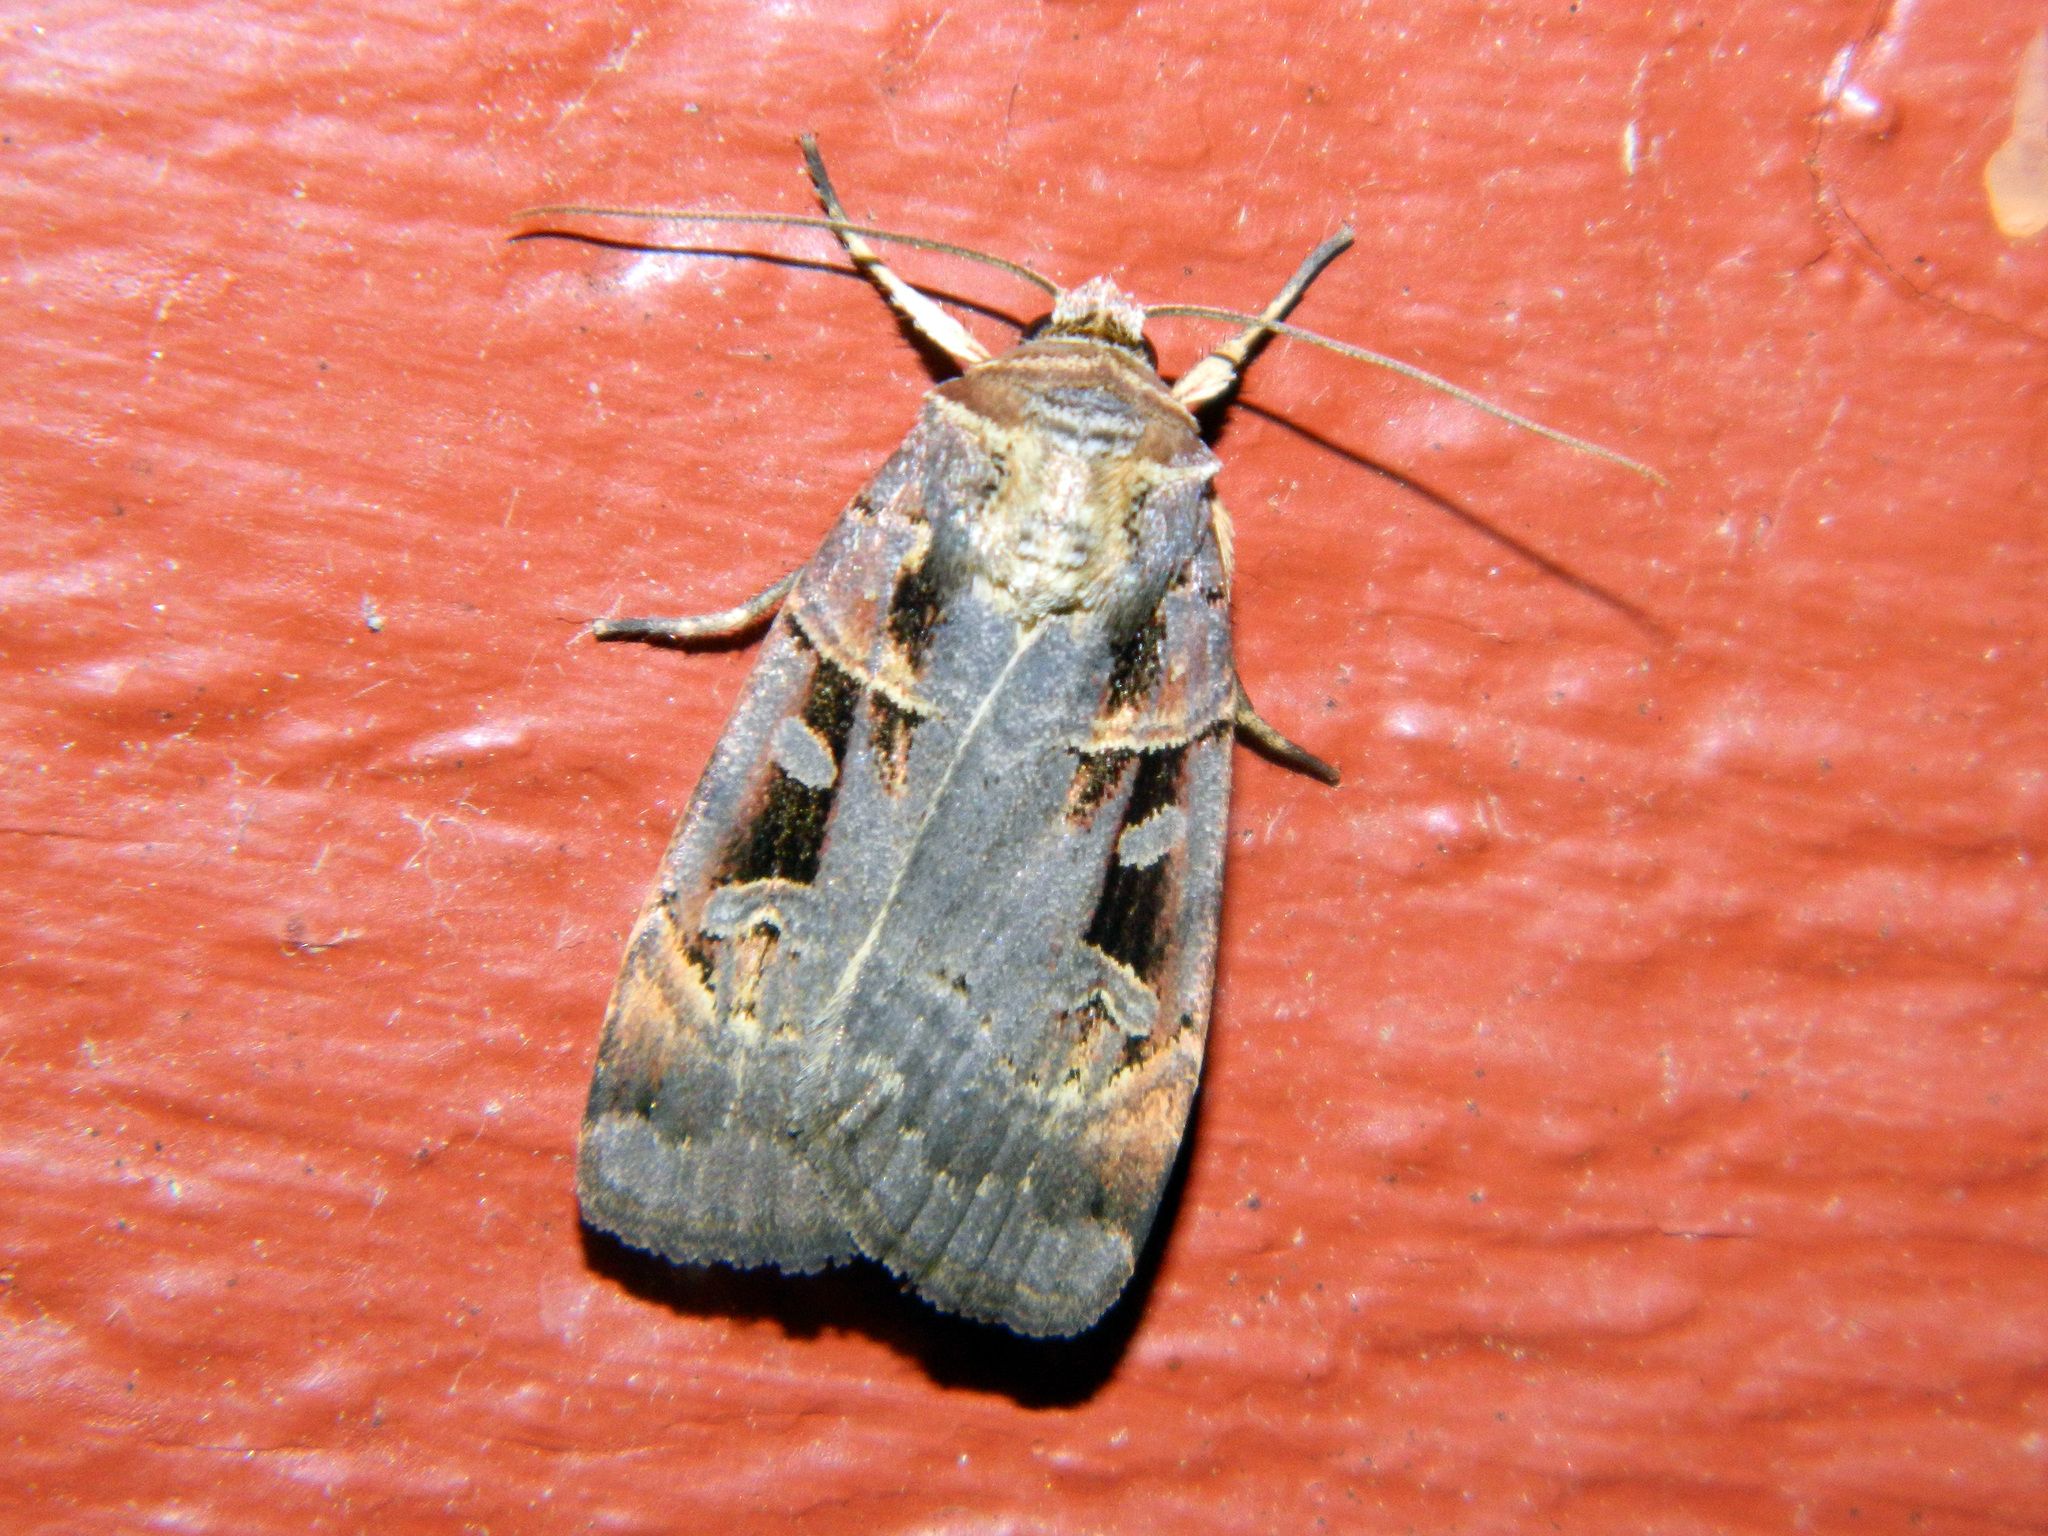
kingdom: Animalia
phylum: Arthropoda
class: Insecta
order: Lepidoptera
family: Noctuidae
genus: Pseudohermonassa
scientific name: Pseudohermonassa bicarnea
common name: Pink spotted dart
